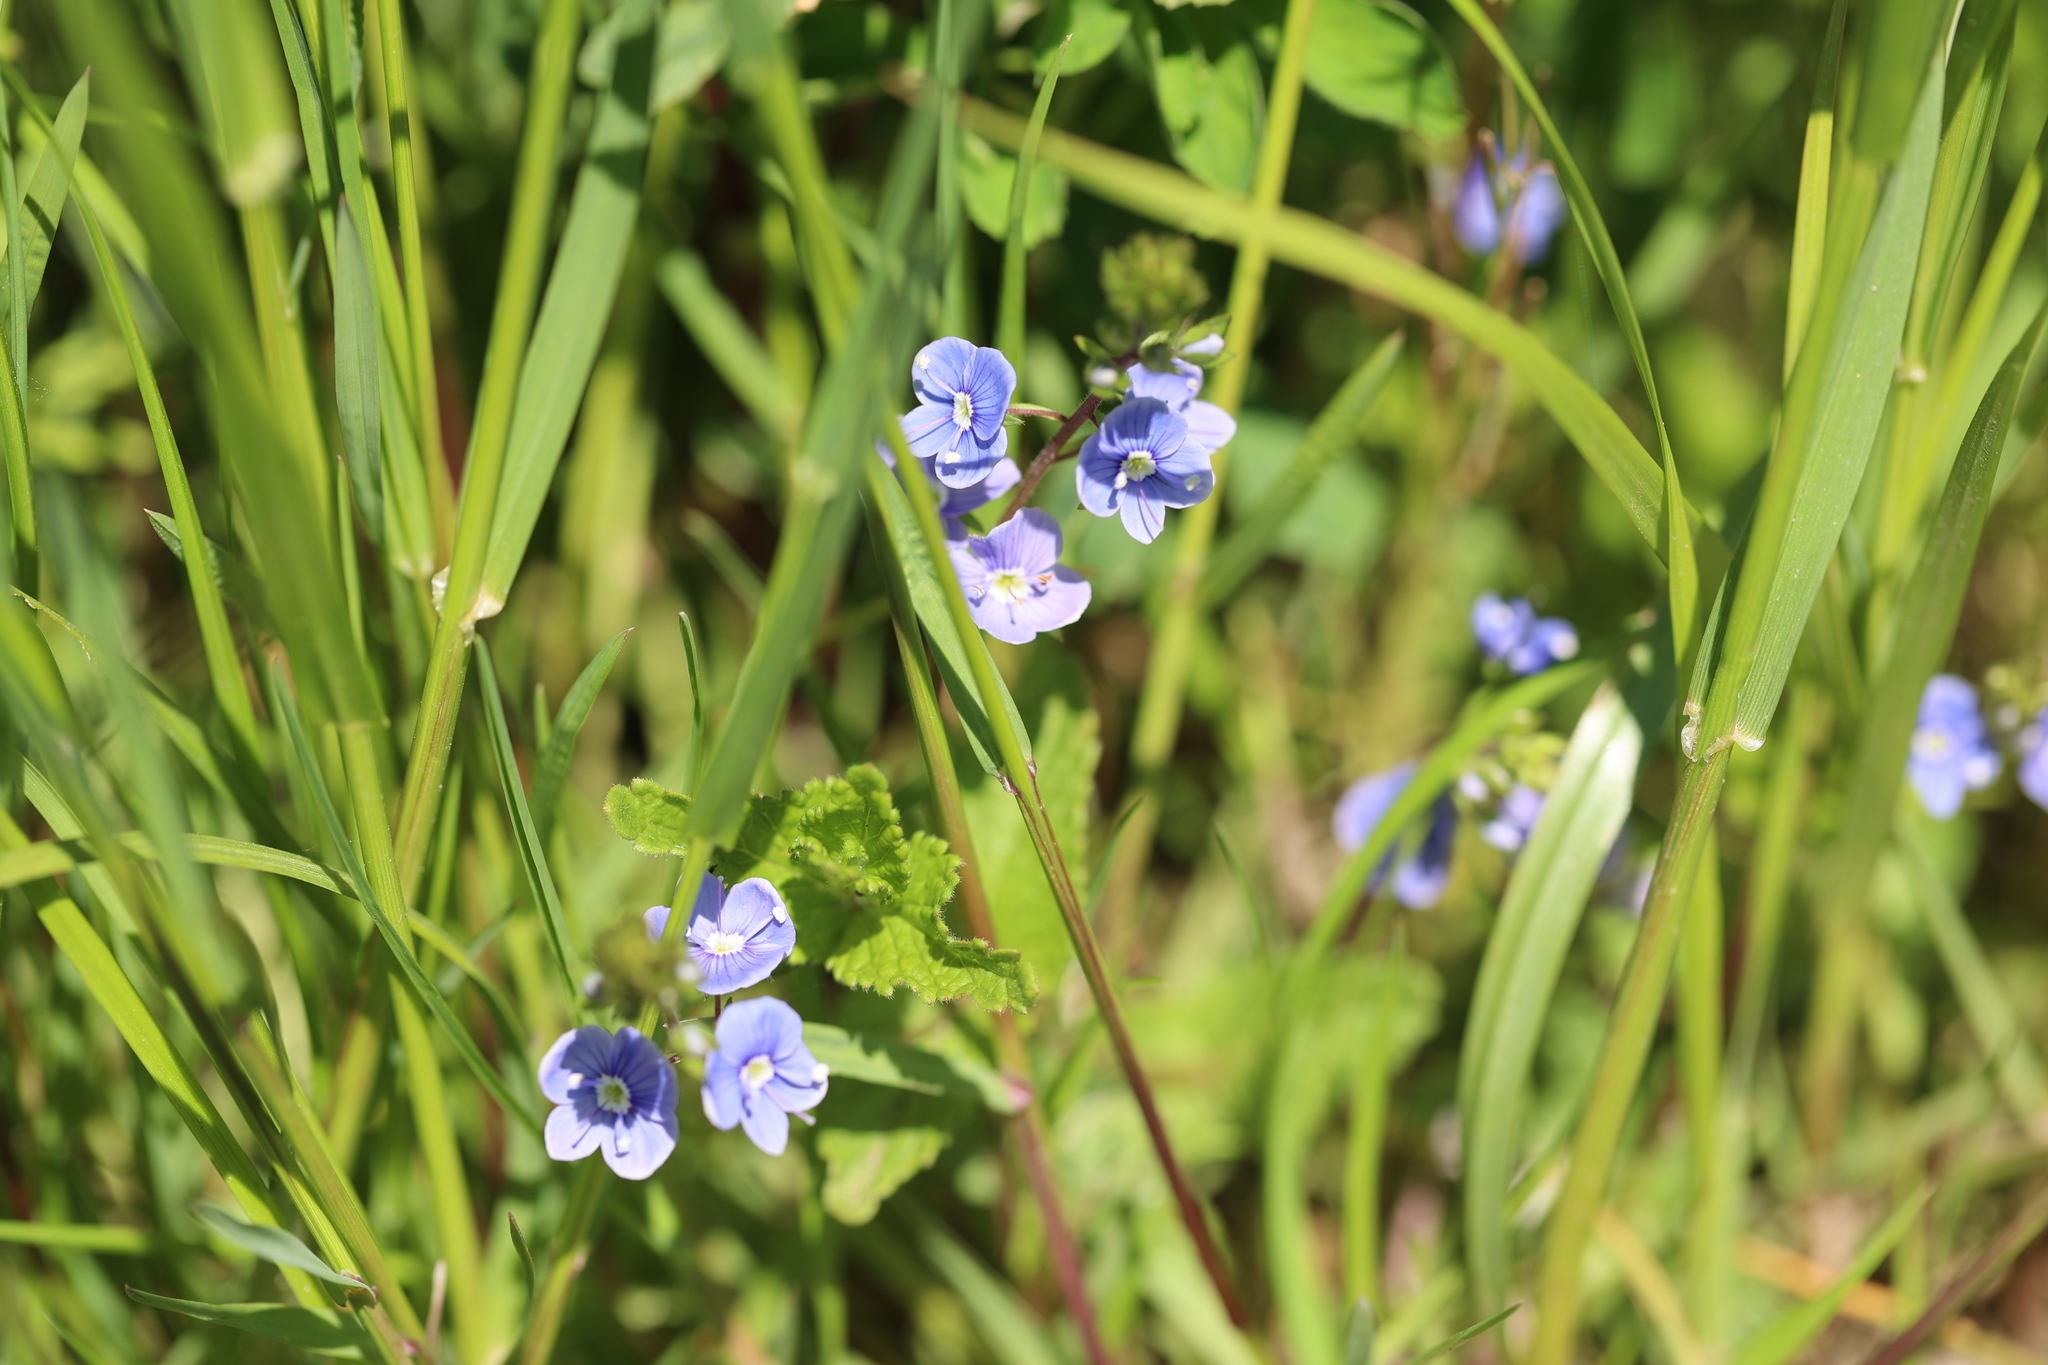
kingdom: Plantae
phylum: Tracheophyta
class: Magnoliopsida
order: Lamiales
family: Plantaginaceae
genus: Veronica
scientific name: Veronica chamaedrys
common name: Germander speedwell
